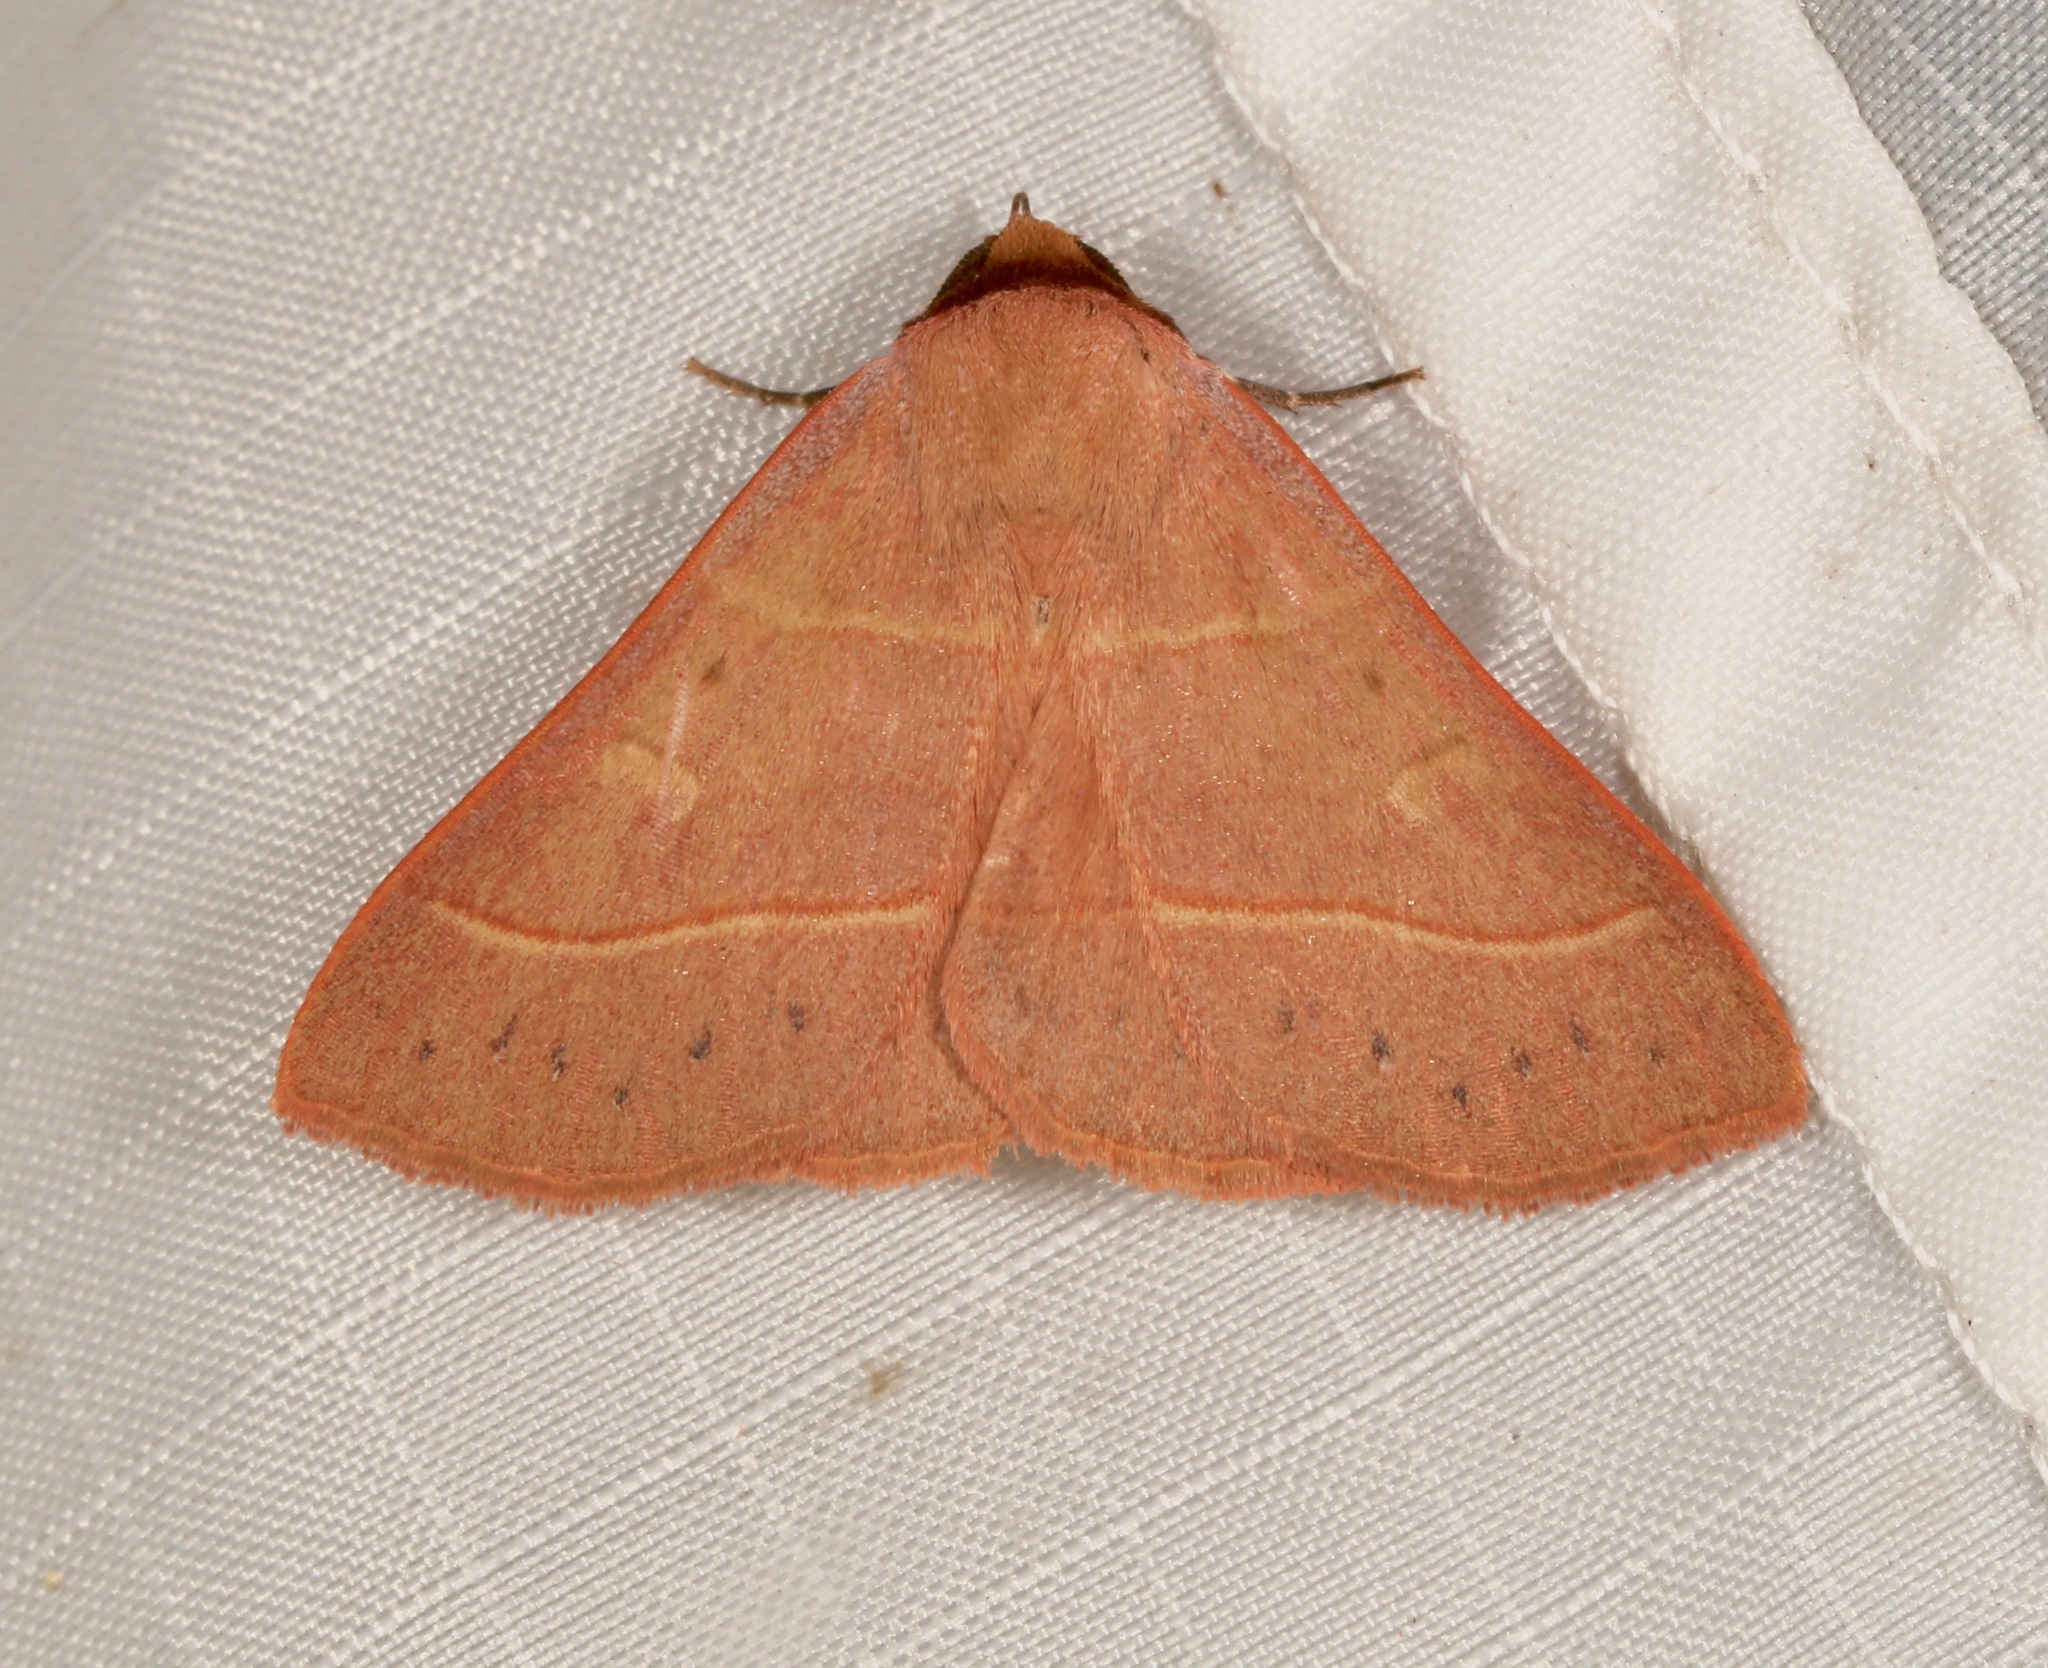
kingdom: Animalia
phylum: Arthropoda
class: Insecta
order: Lepidoptera
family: Erebidae
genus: Panopoda
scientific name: Panopoda rufimargo
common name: Red-lined panopoda moth
